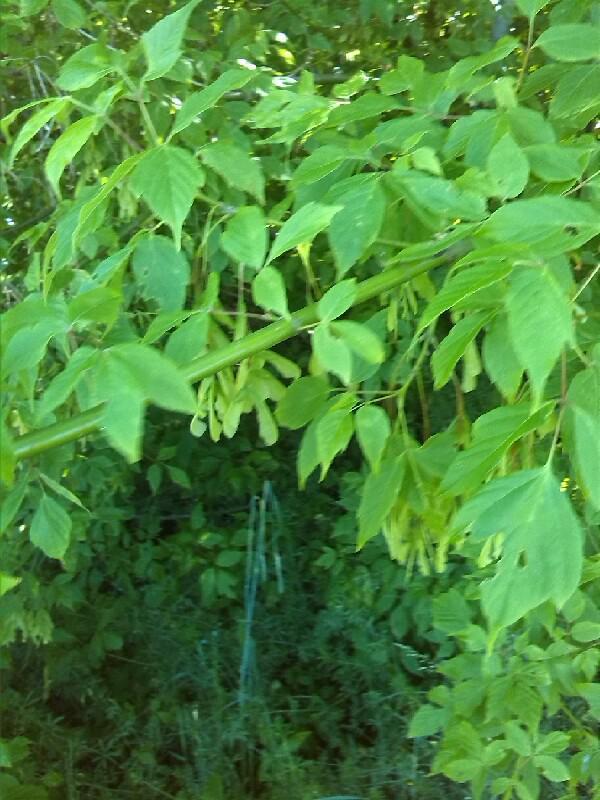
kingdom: Plantae
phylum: Tracheophyta
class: Magnoliopsida
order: Sapindales
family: Sapindaceae
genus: Acer
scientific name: Acer negundo
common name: Ashleaf maple
